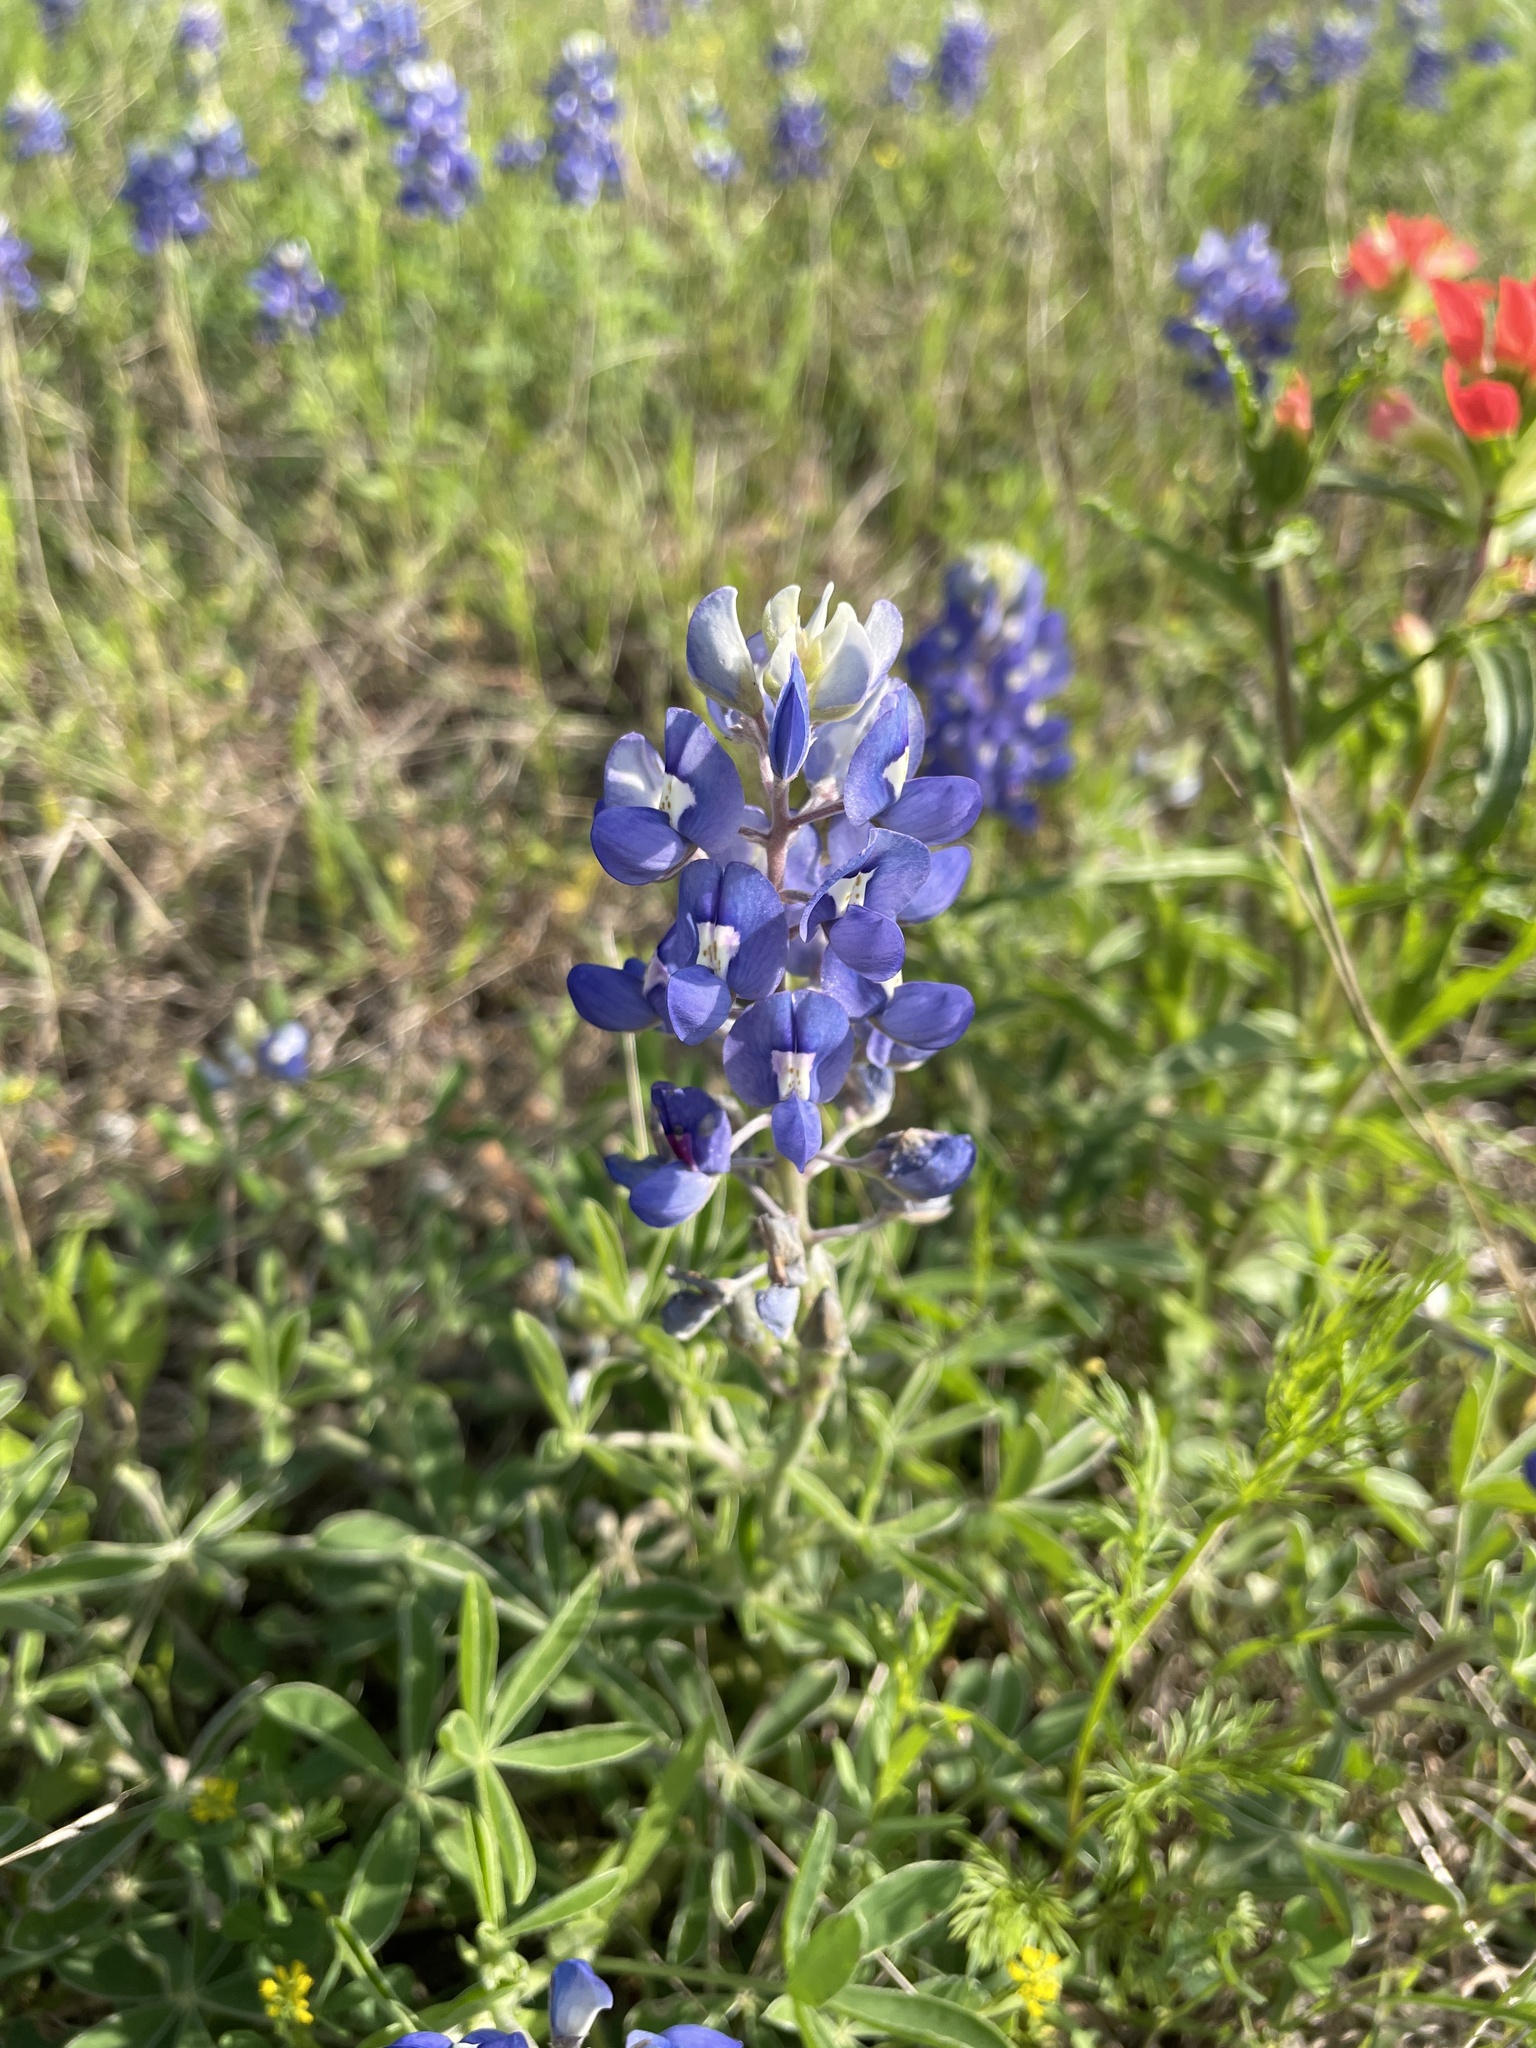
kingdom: Plantae
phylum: Tracheophyta
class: Magnoliopsida
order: Fabales
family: Fabaceae
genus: Lupinus
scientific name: Lupinus texensis
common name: Texas bluebonnet
